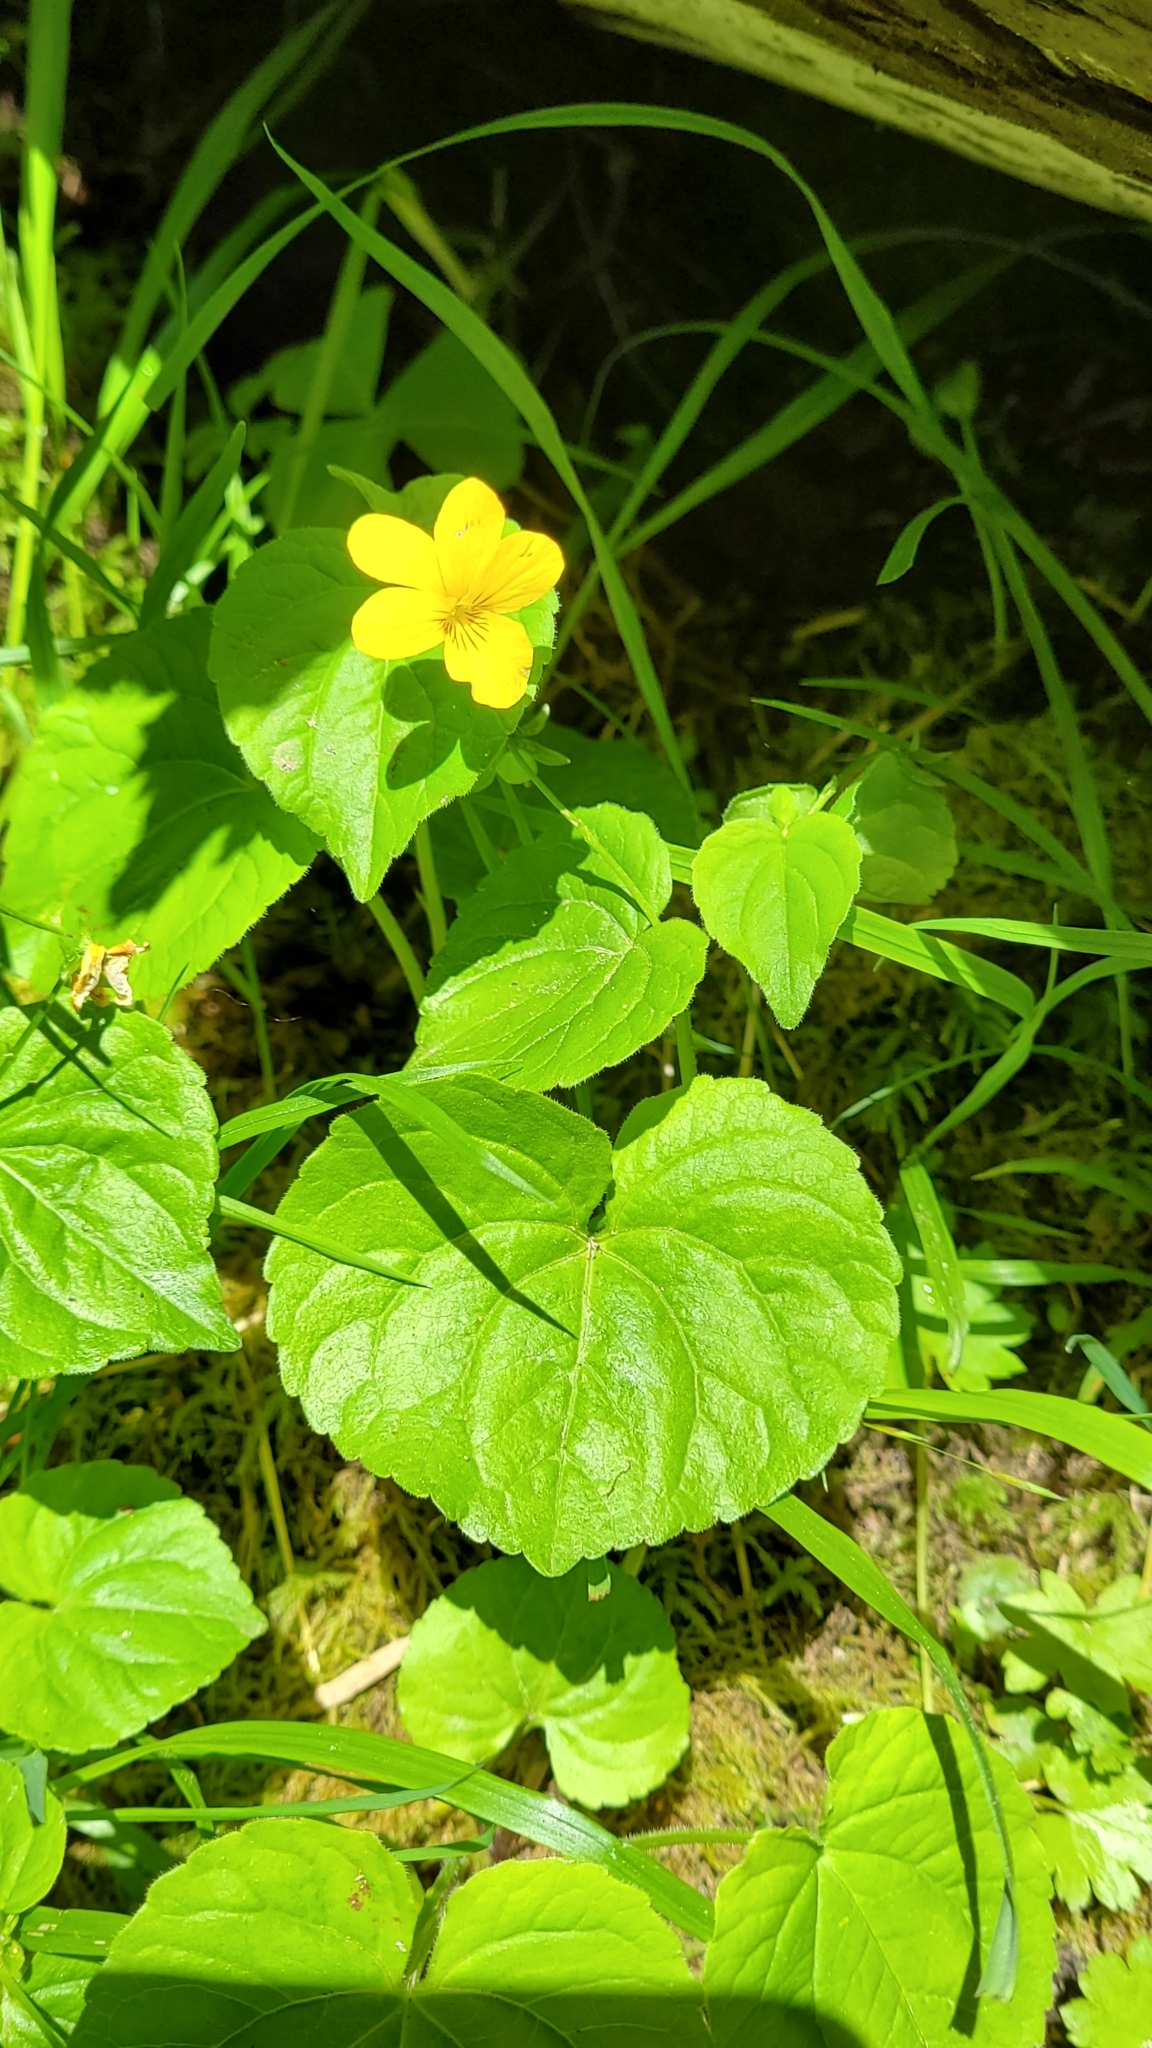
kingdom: Plantae
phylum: Tracheophyta
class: Magnoliopsida
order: Malpighiales
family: Violaceae
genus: Viola
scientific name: Viola glabella
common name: Stream violet
